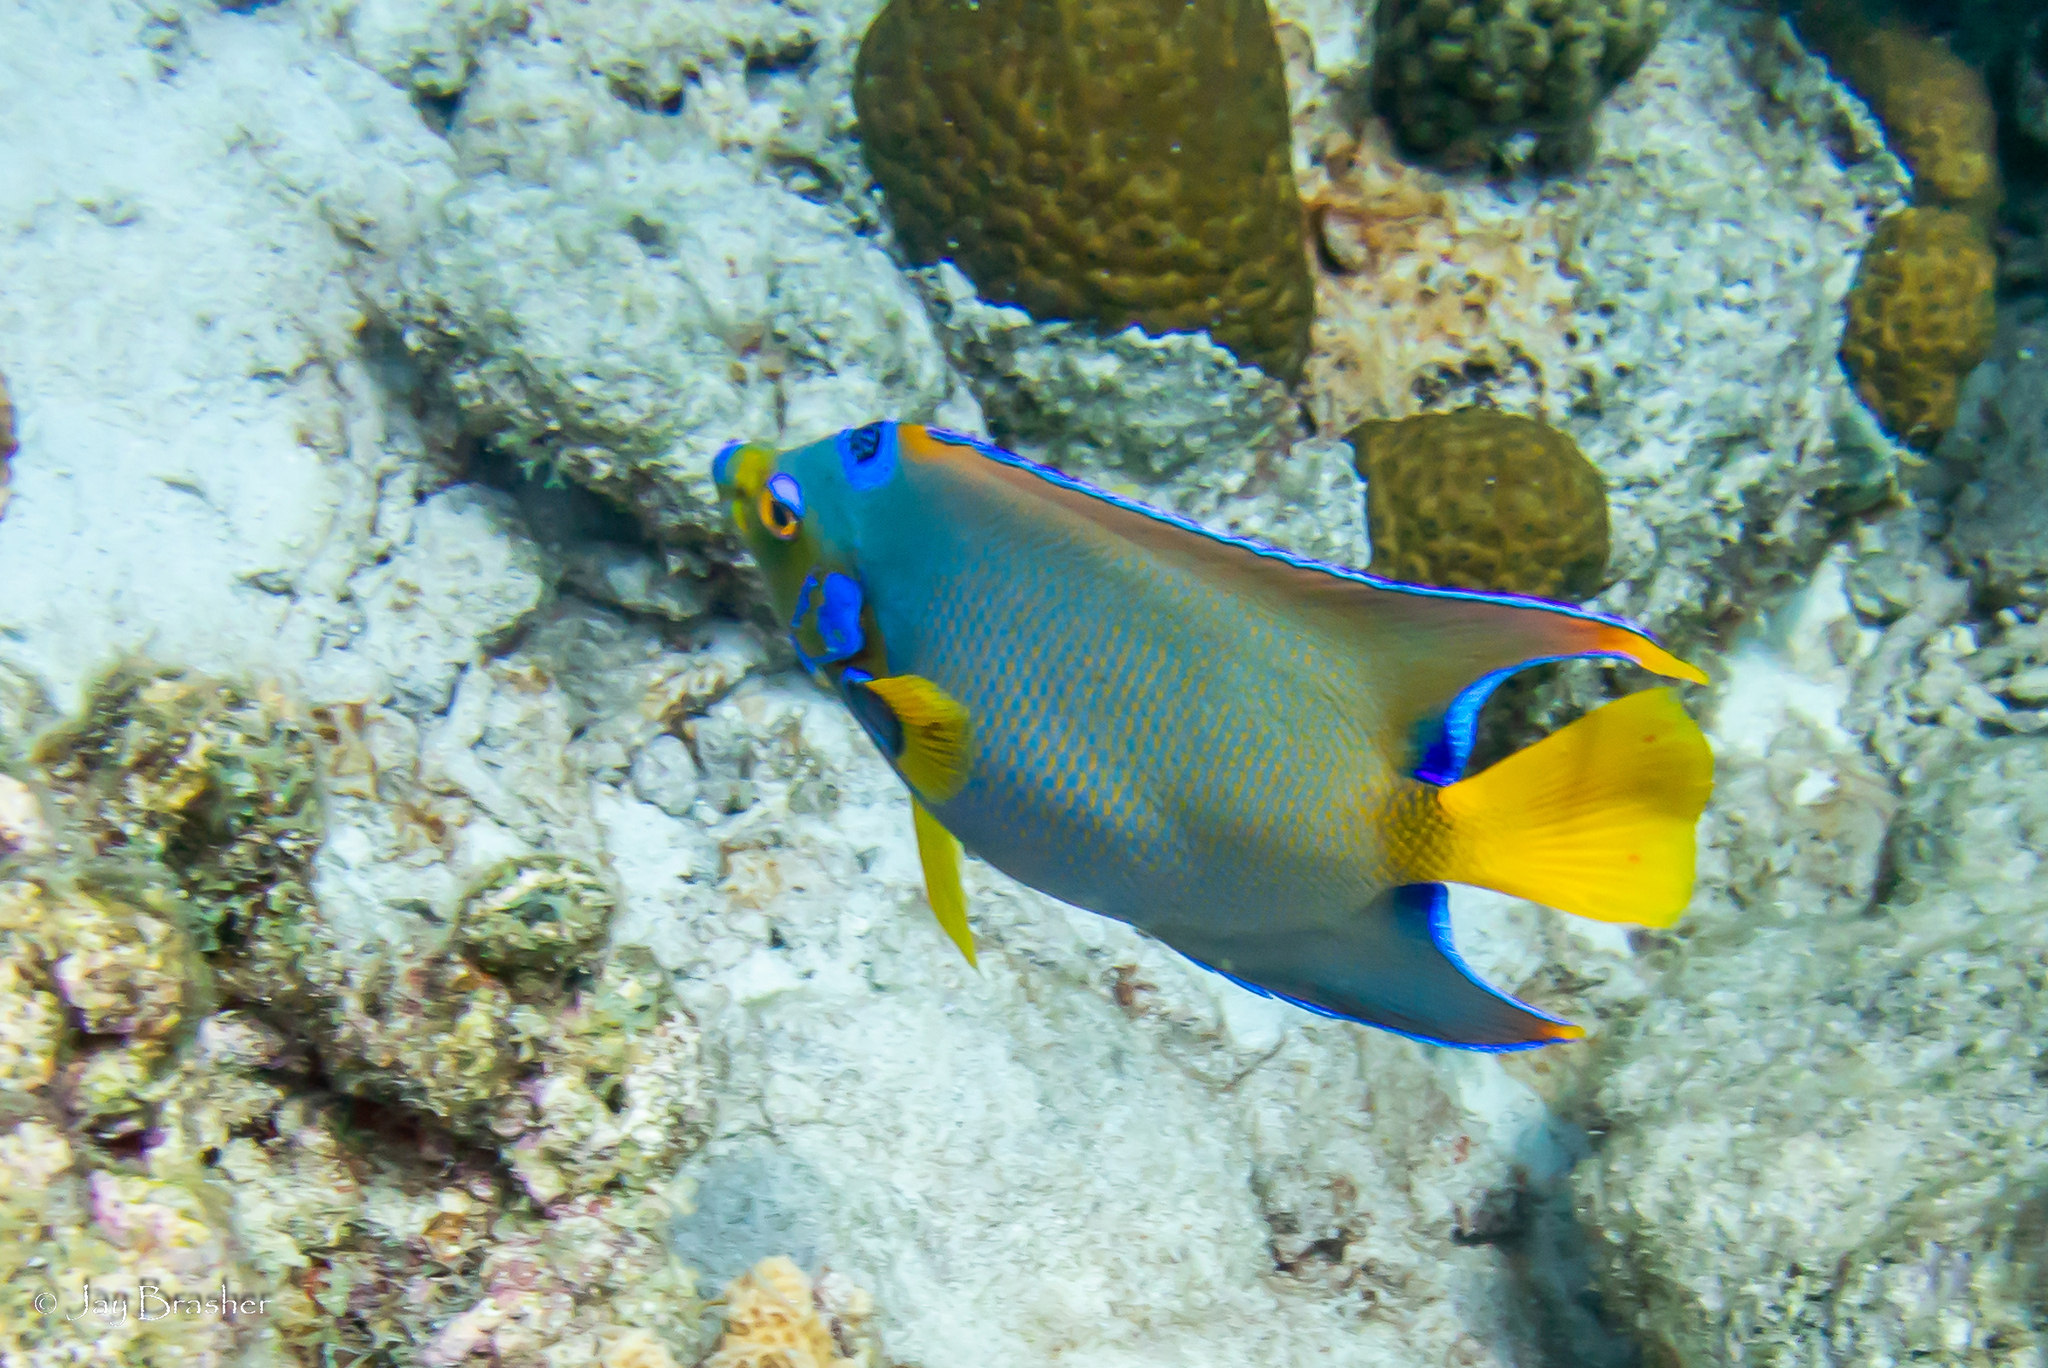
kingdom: Animalia
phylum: Chordata
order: Perciformes
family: Pomacanthidae
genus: Holacanthus
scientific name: Holacanthus ciliaris
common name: Queen angelfish
